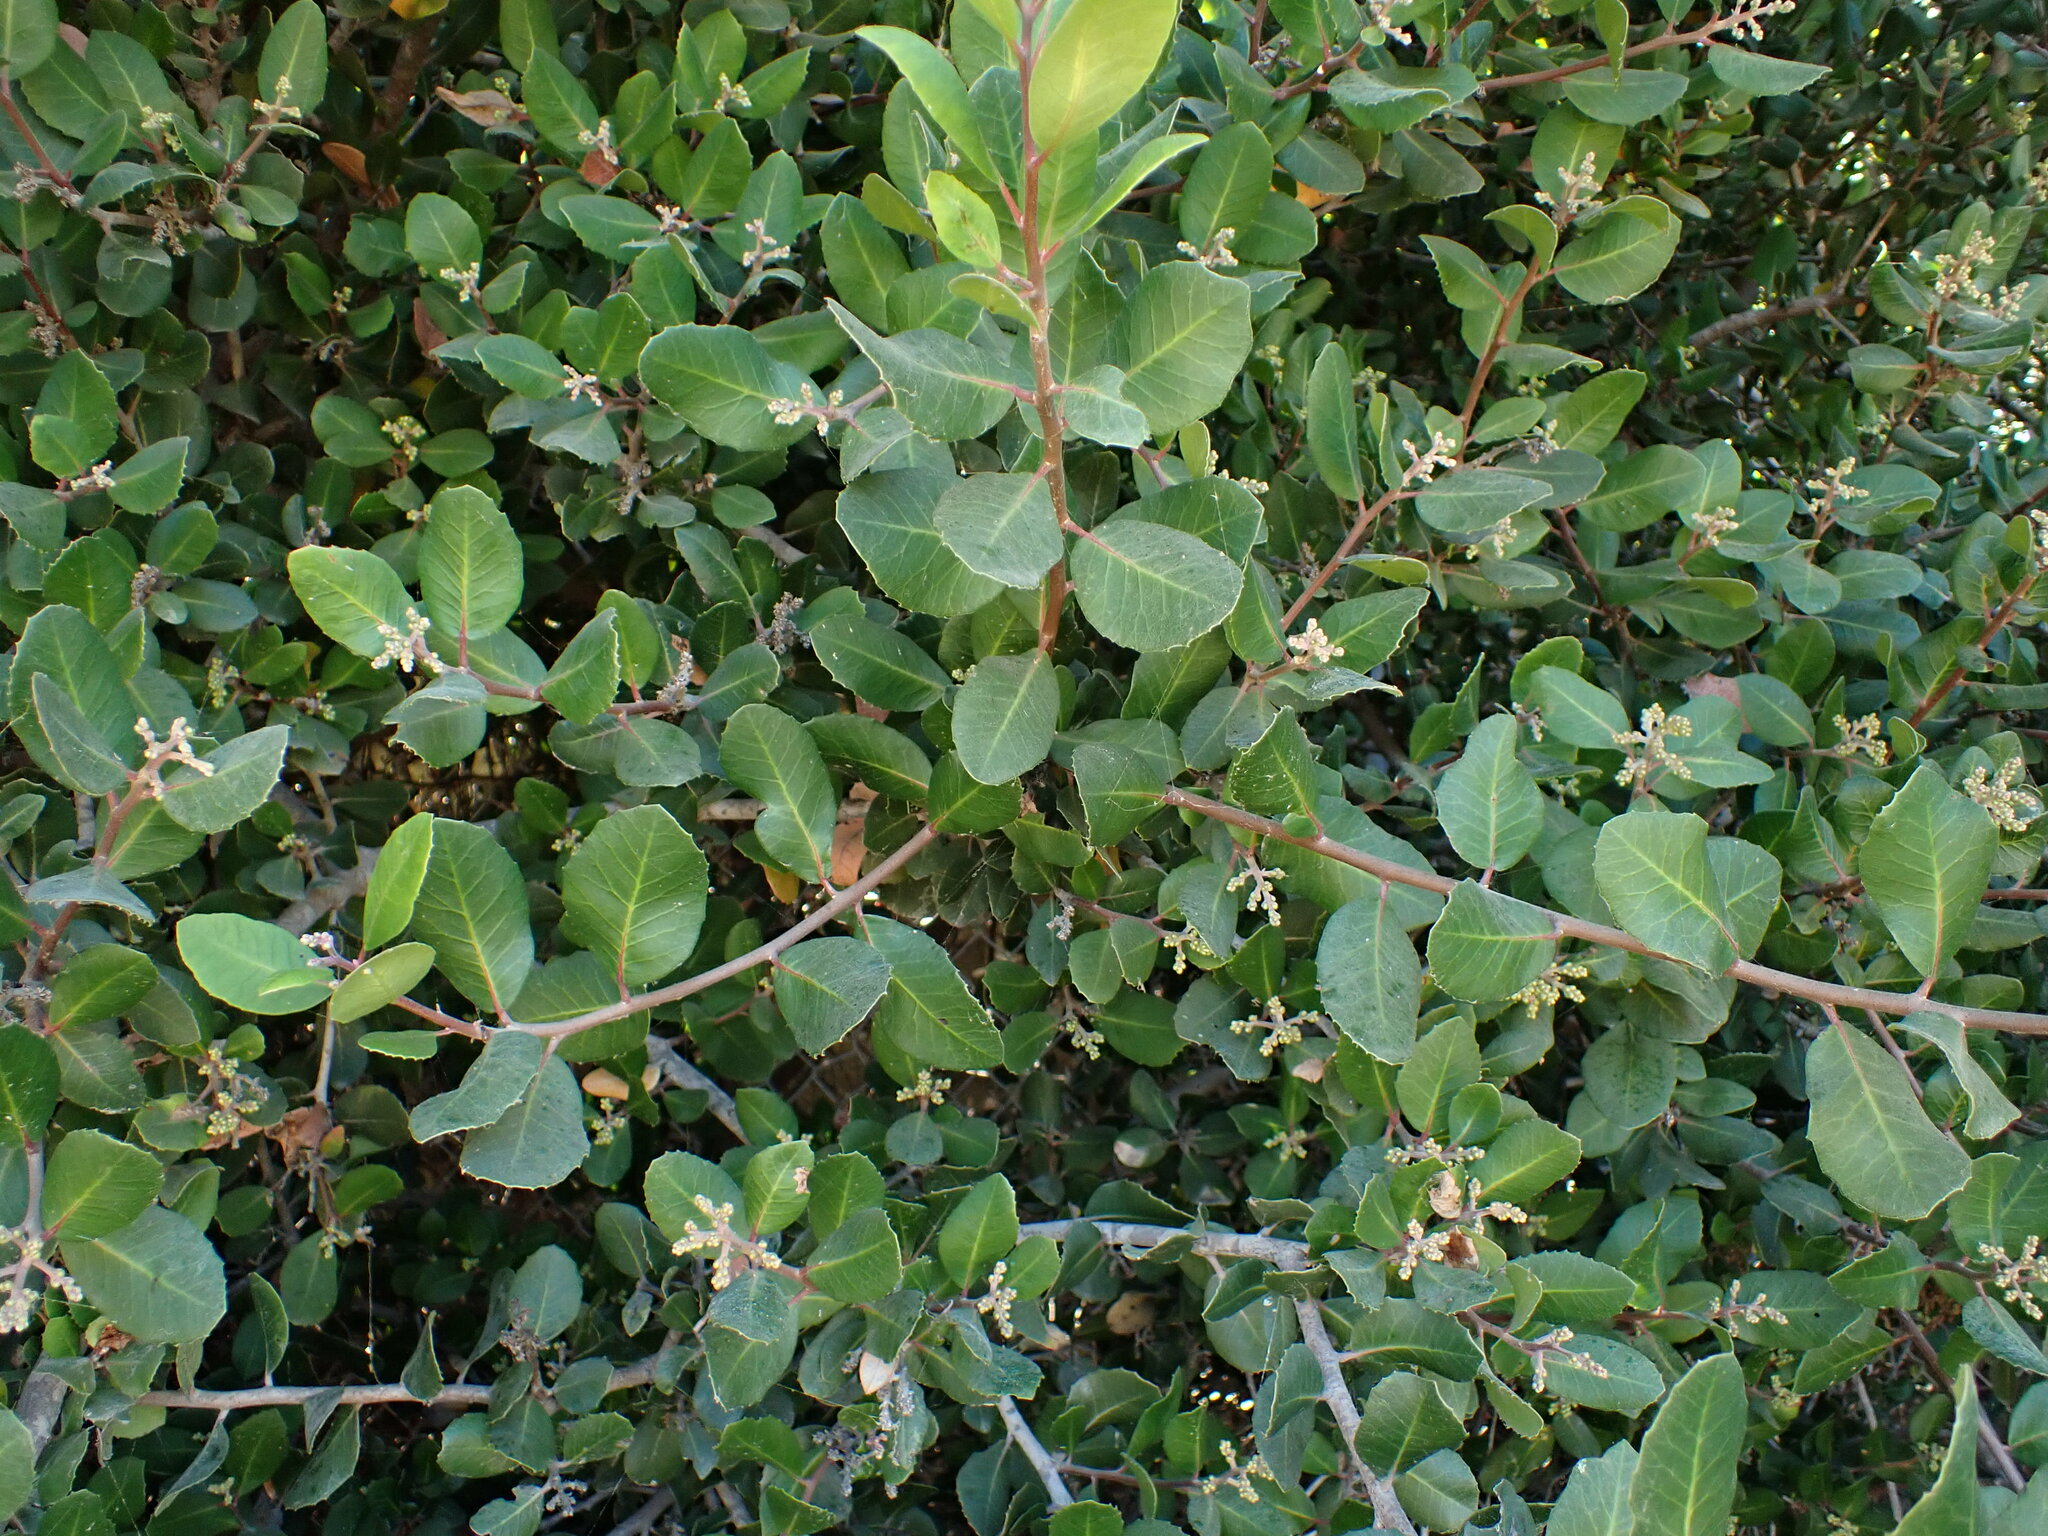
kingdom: Plantae
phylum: Tracheophyta
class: Magnoliopsida
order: Sapindales
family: Anacardiaceae
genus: Rhus
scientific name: Rhus integrifolia
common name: Lemonade sumac
